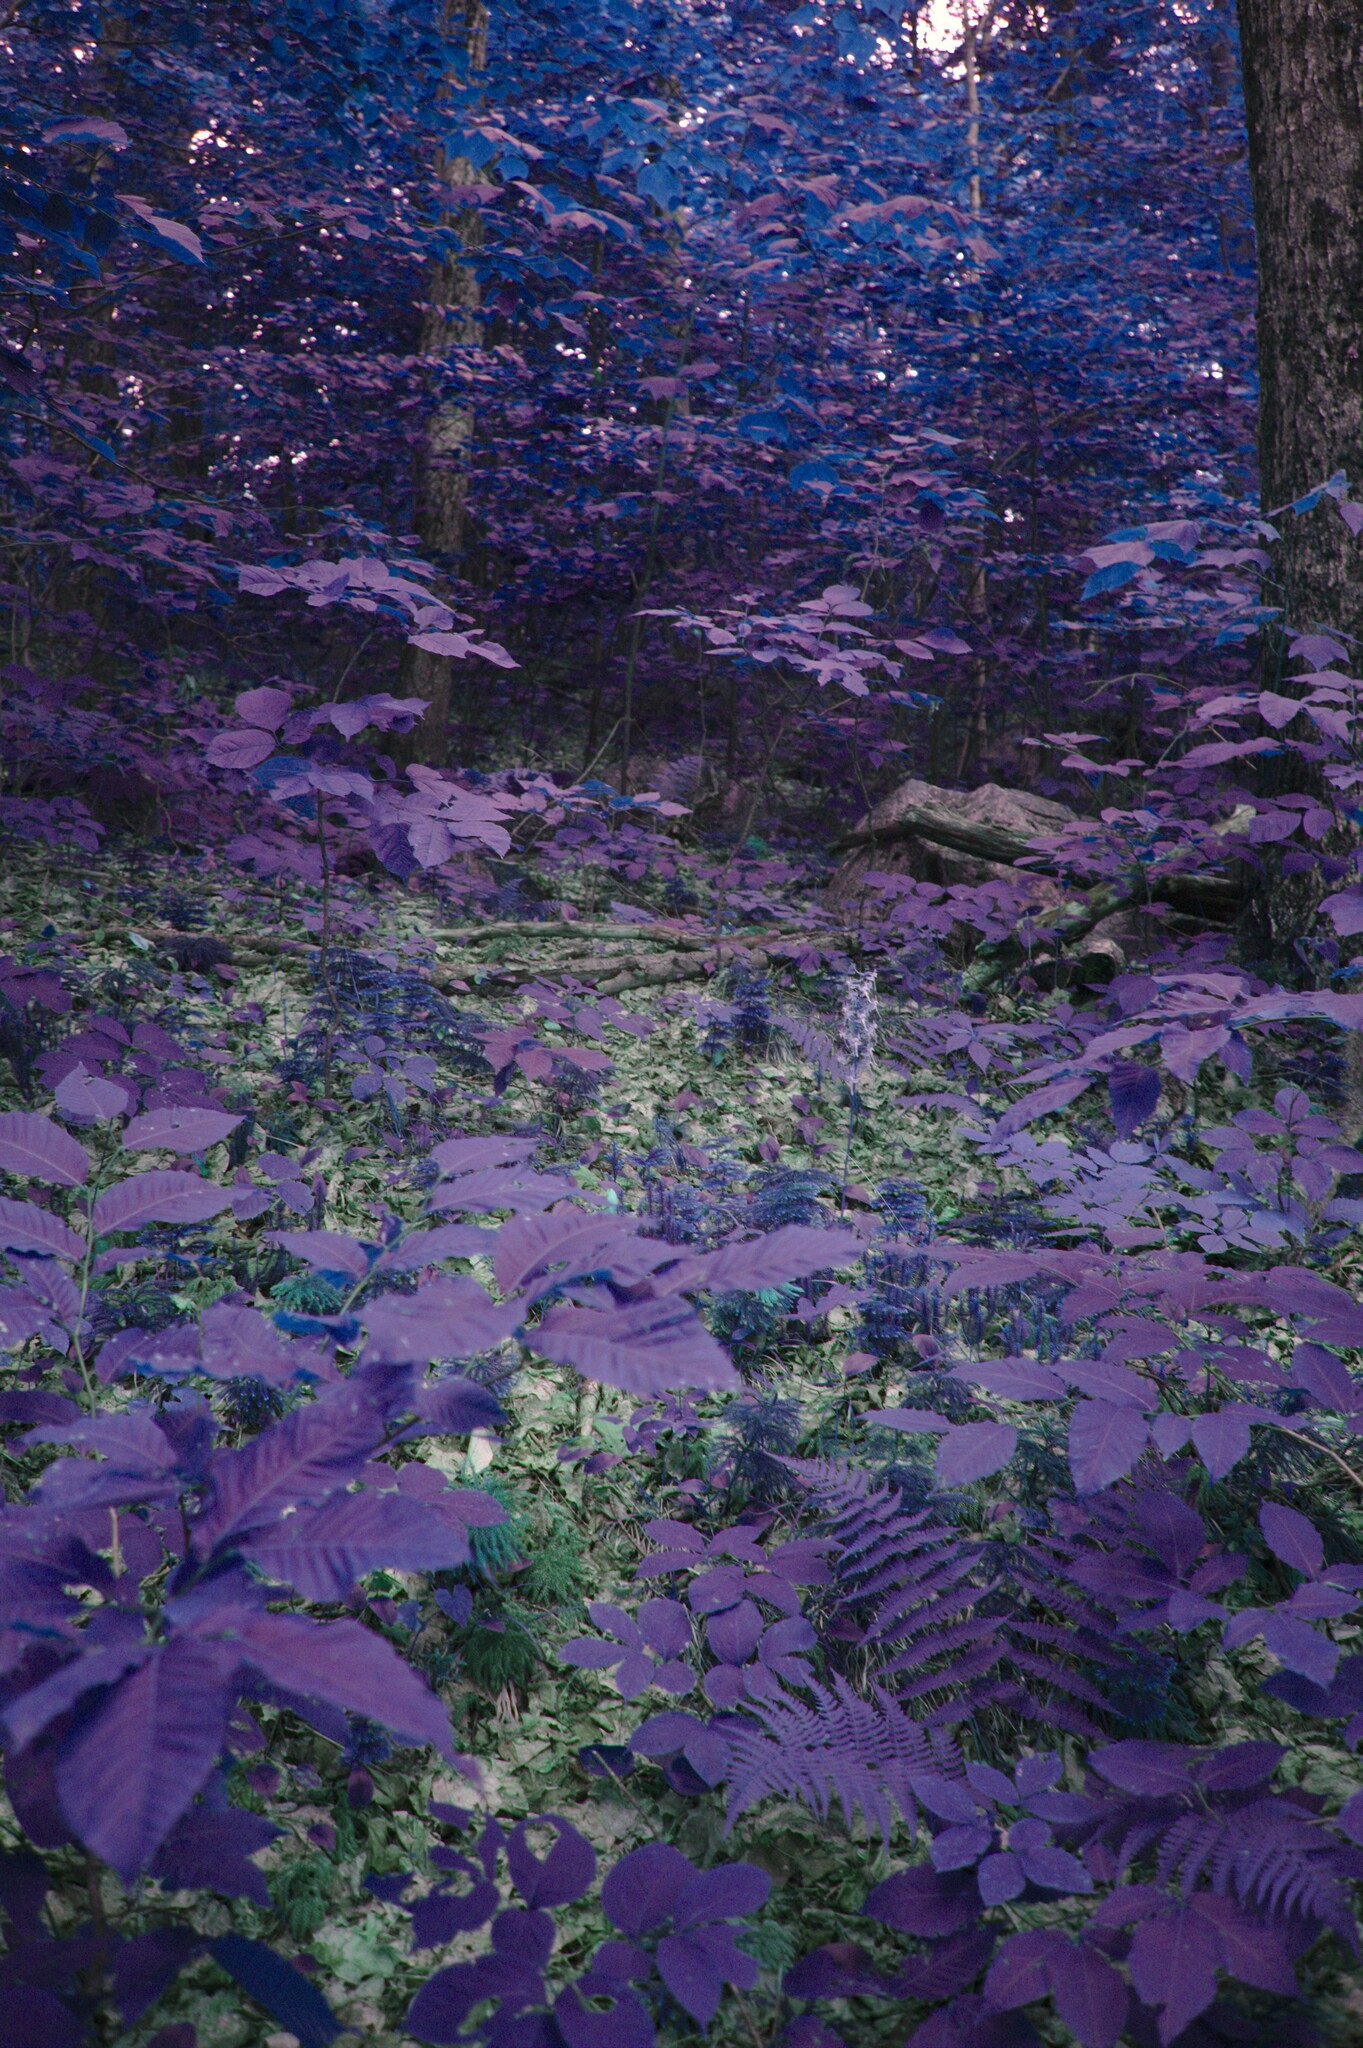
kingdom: Plantae
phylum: Tracheophyta
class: Liliopsida
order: Asparagales
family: Orchidaceae
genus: Platanthera
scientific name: Platanthera orbiculata
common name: Large round-leaved orchid
